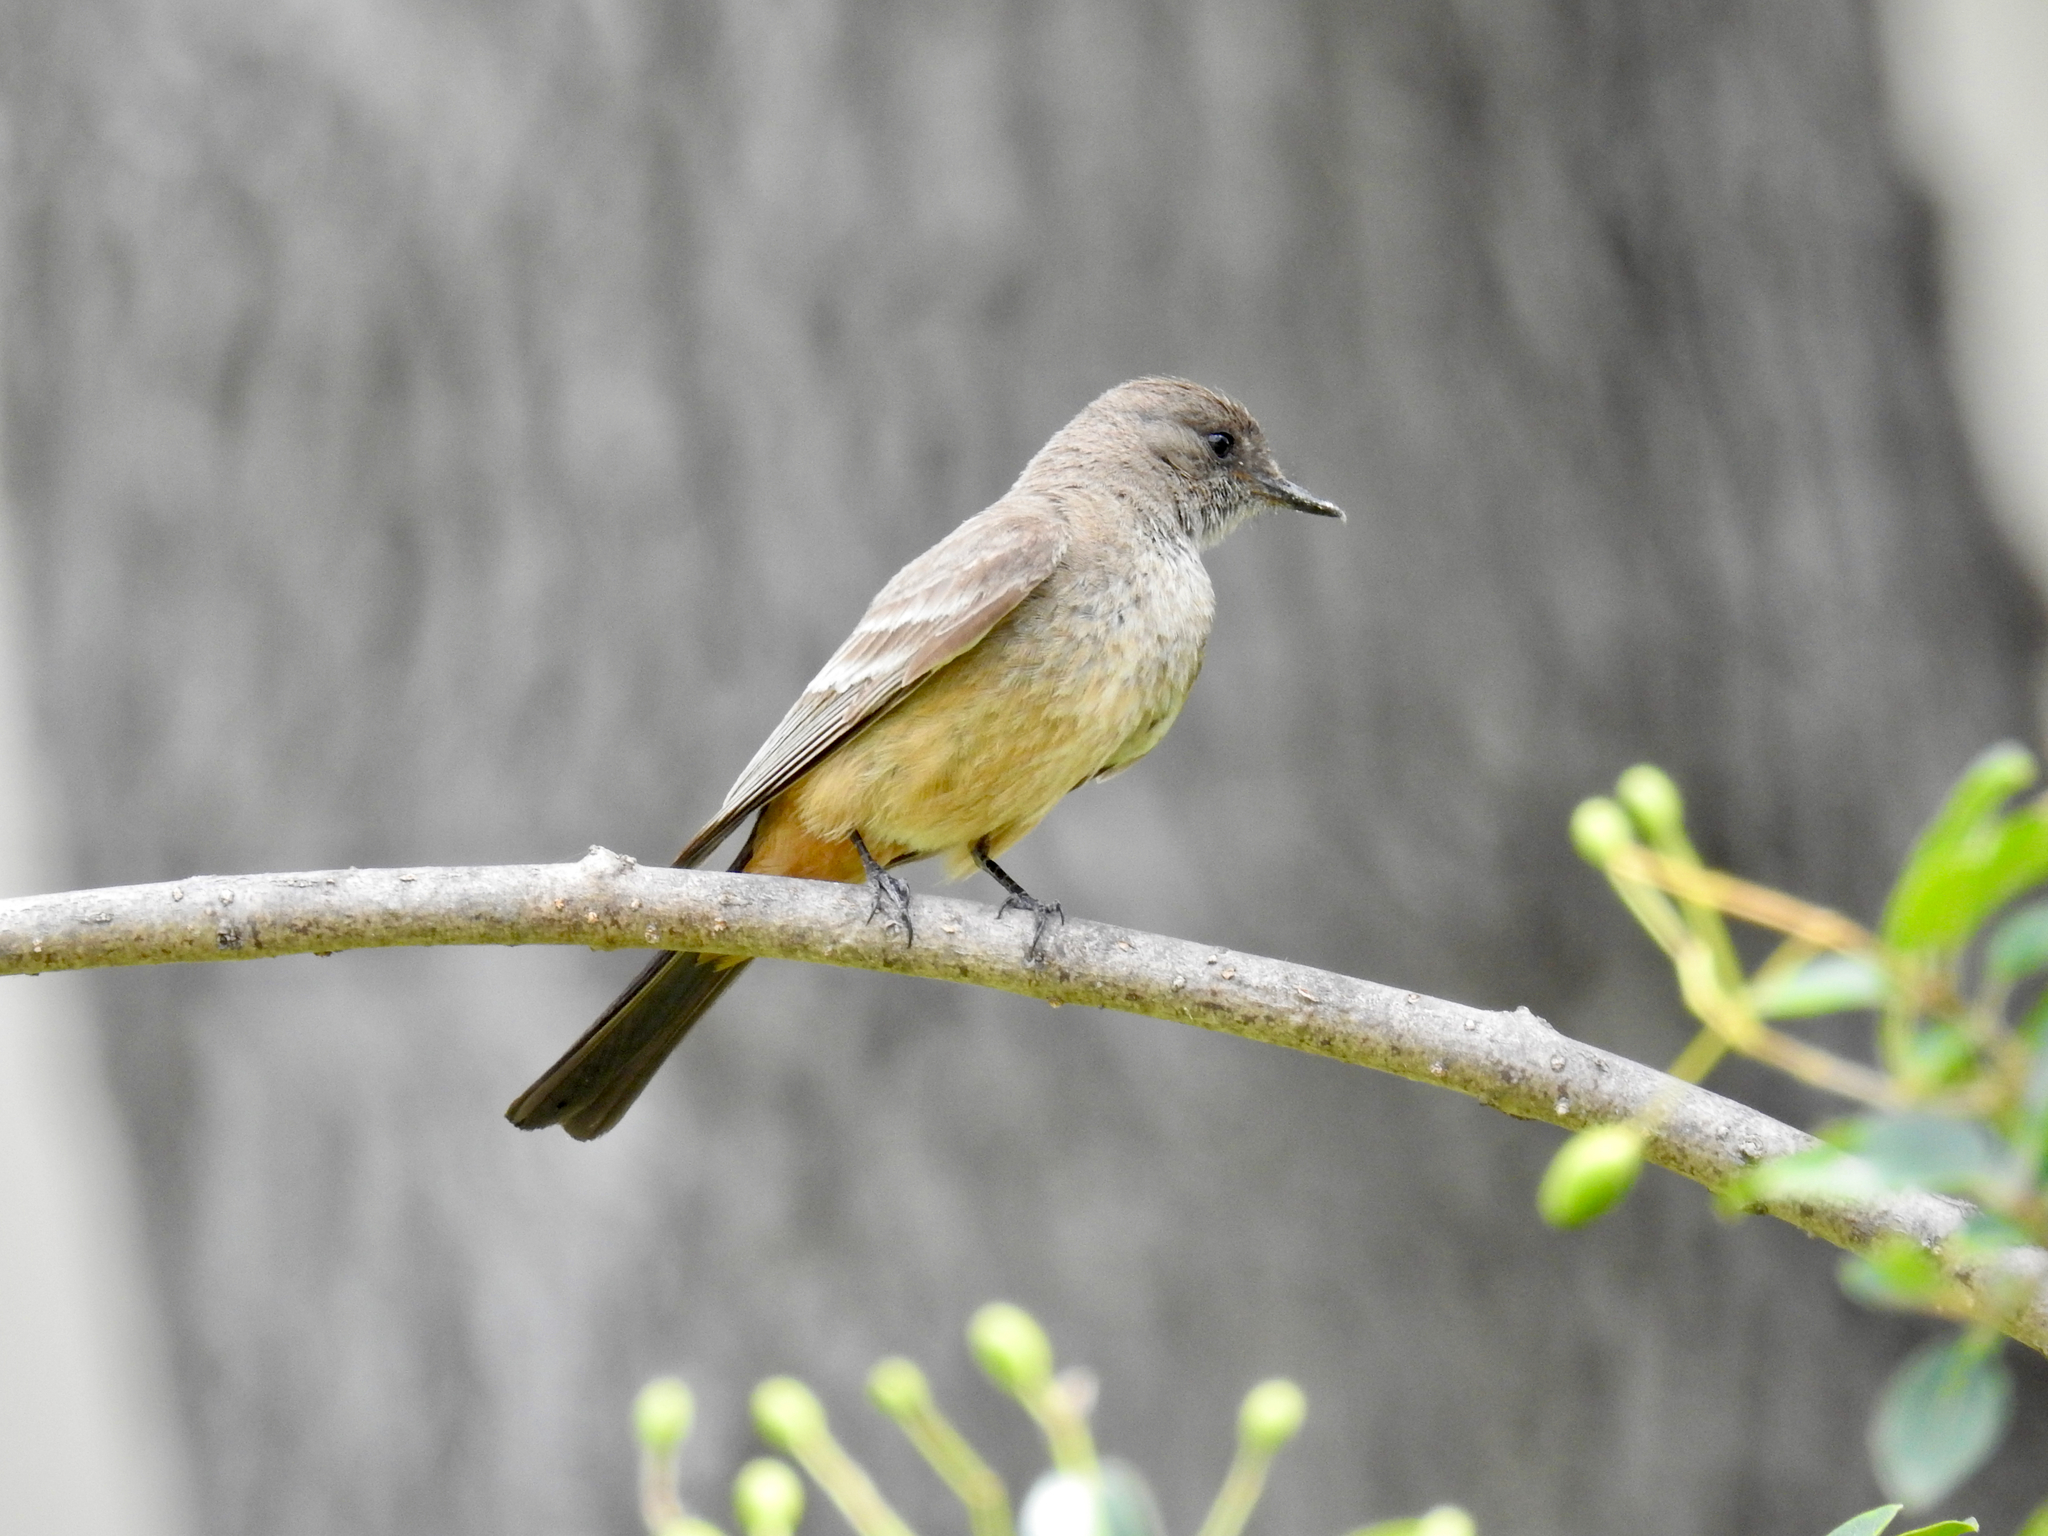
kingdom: Animalia
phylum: Chordata
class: Aves
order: Passeriformes
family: Tyrannidae
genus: Sayornis
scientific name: Sayornis saya
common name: Say's phoebe
